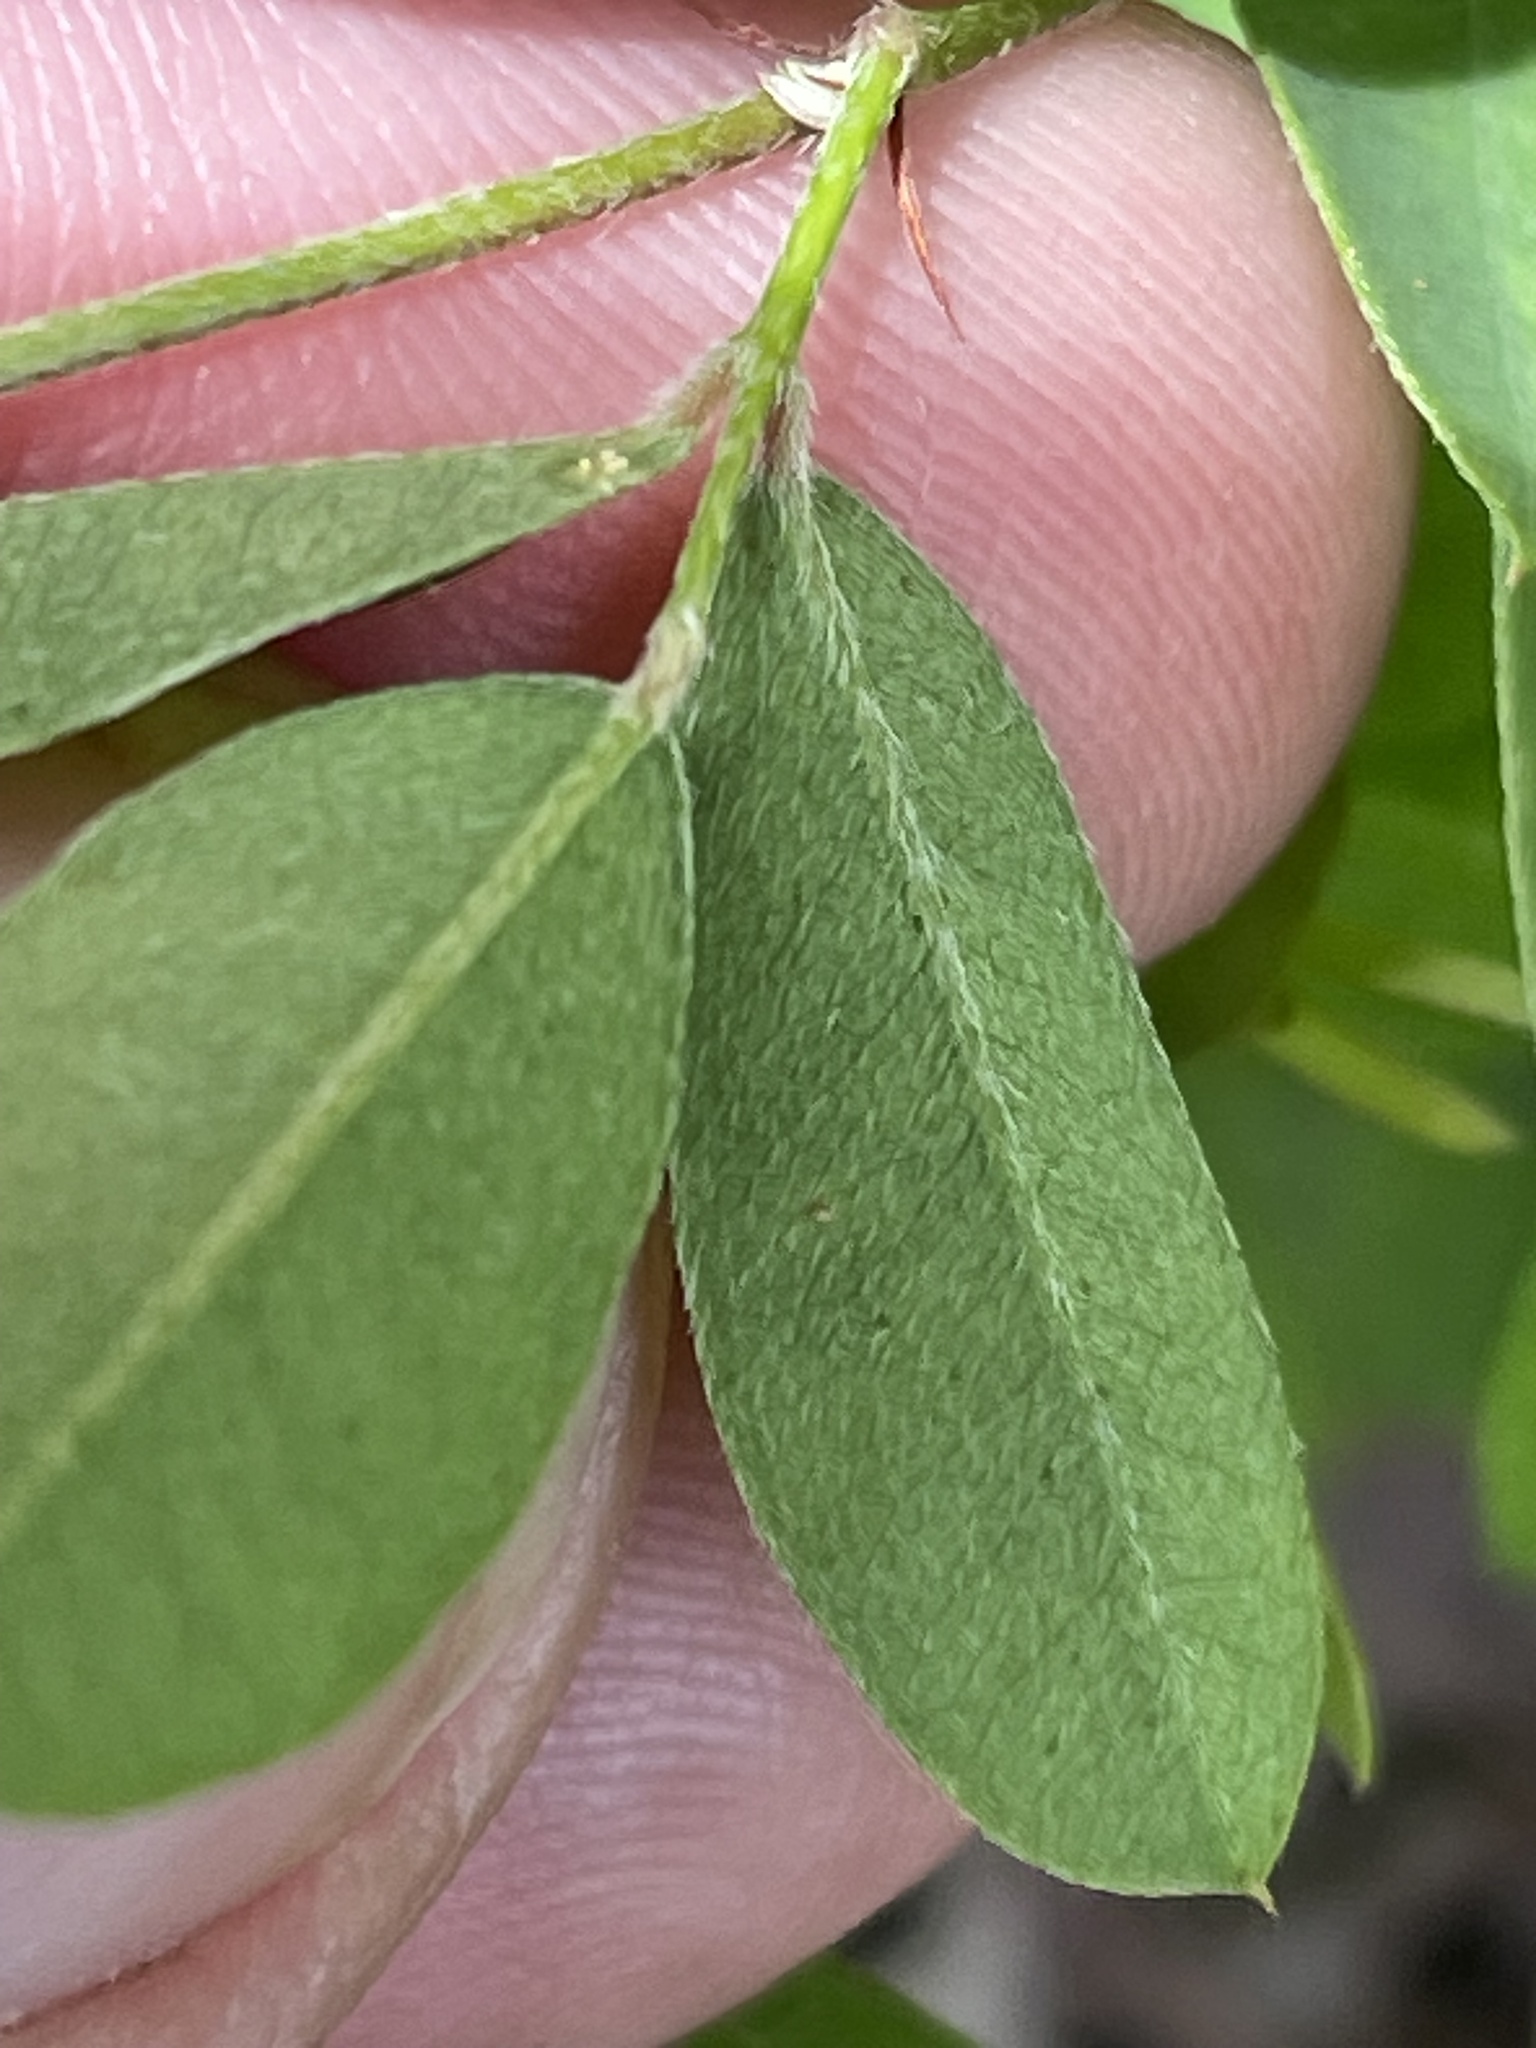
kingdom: Plantae
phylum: Tracheophyta
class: Magnoliopsida
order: Fabales
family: Fabaceae
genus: Lespedeza
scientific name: Lespedeza repens
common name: Creeping bush-clover
